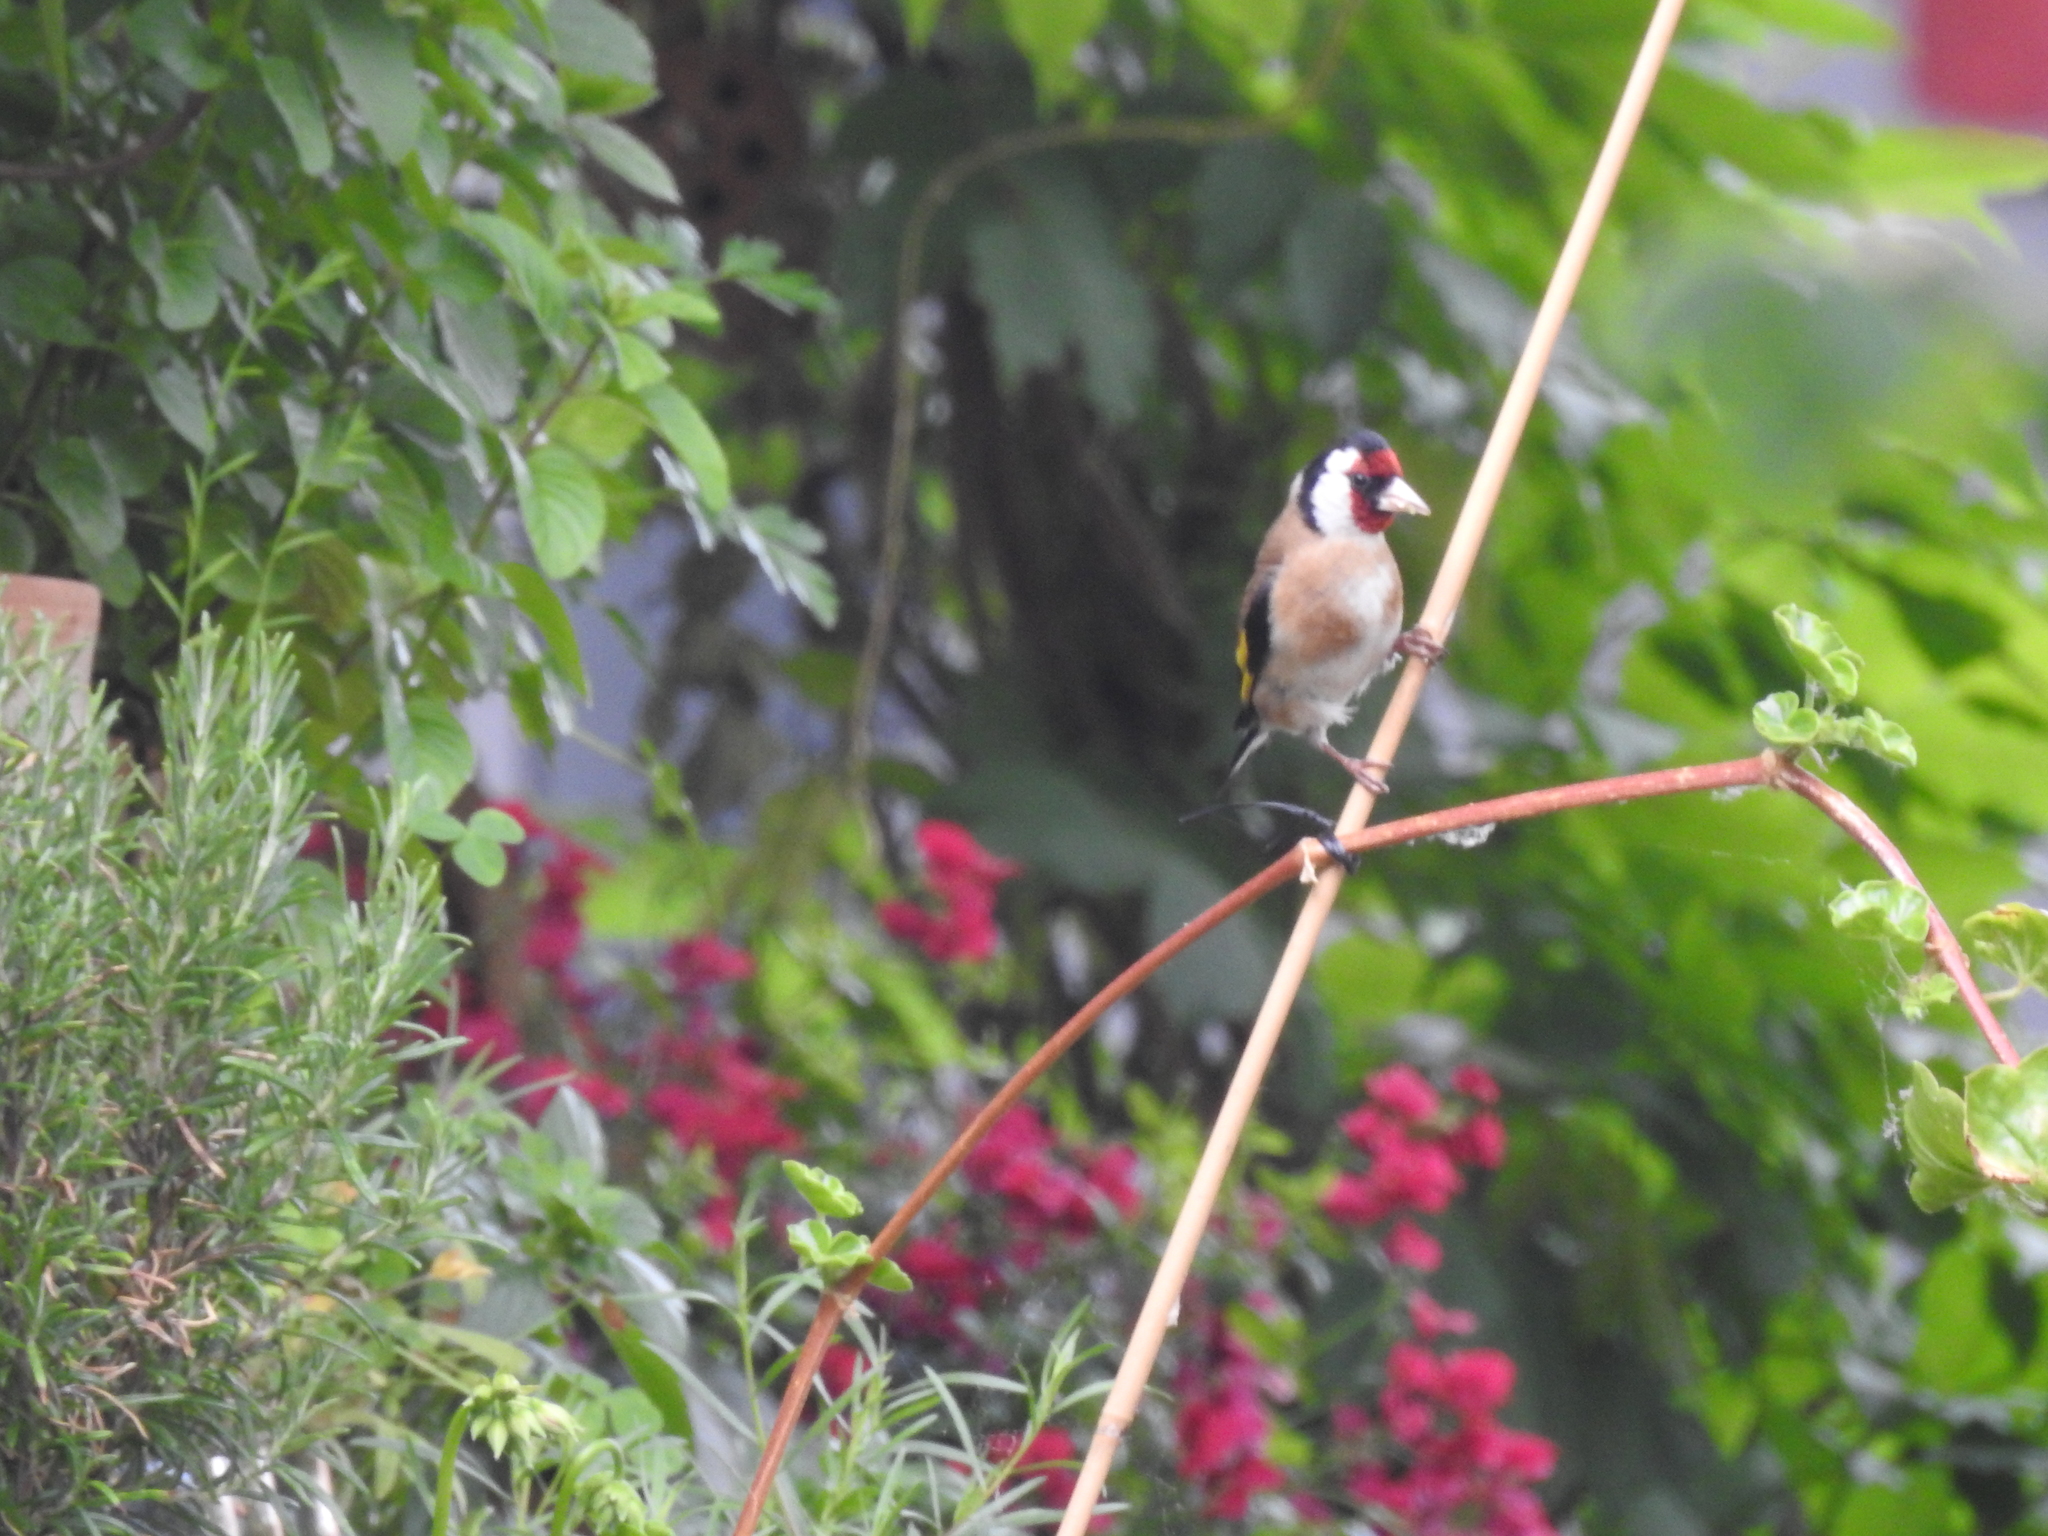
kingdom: Animalia
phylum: Chordata
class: Aves
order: Passeriformes
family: Fringillidae
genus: Carduelis
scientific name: Carduelis carduelis
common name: European goldfinch
